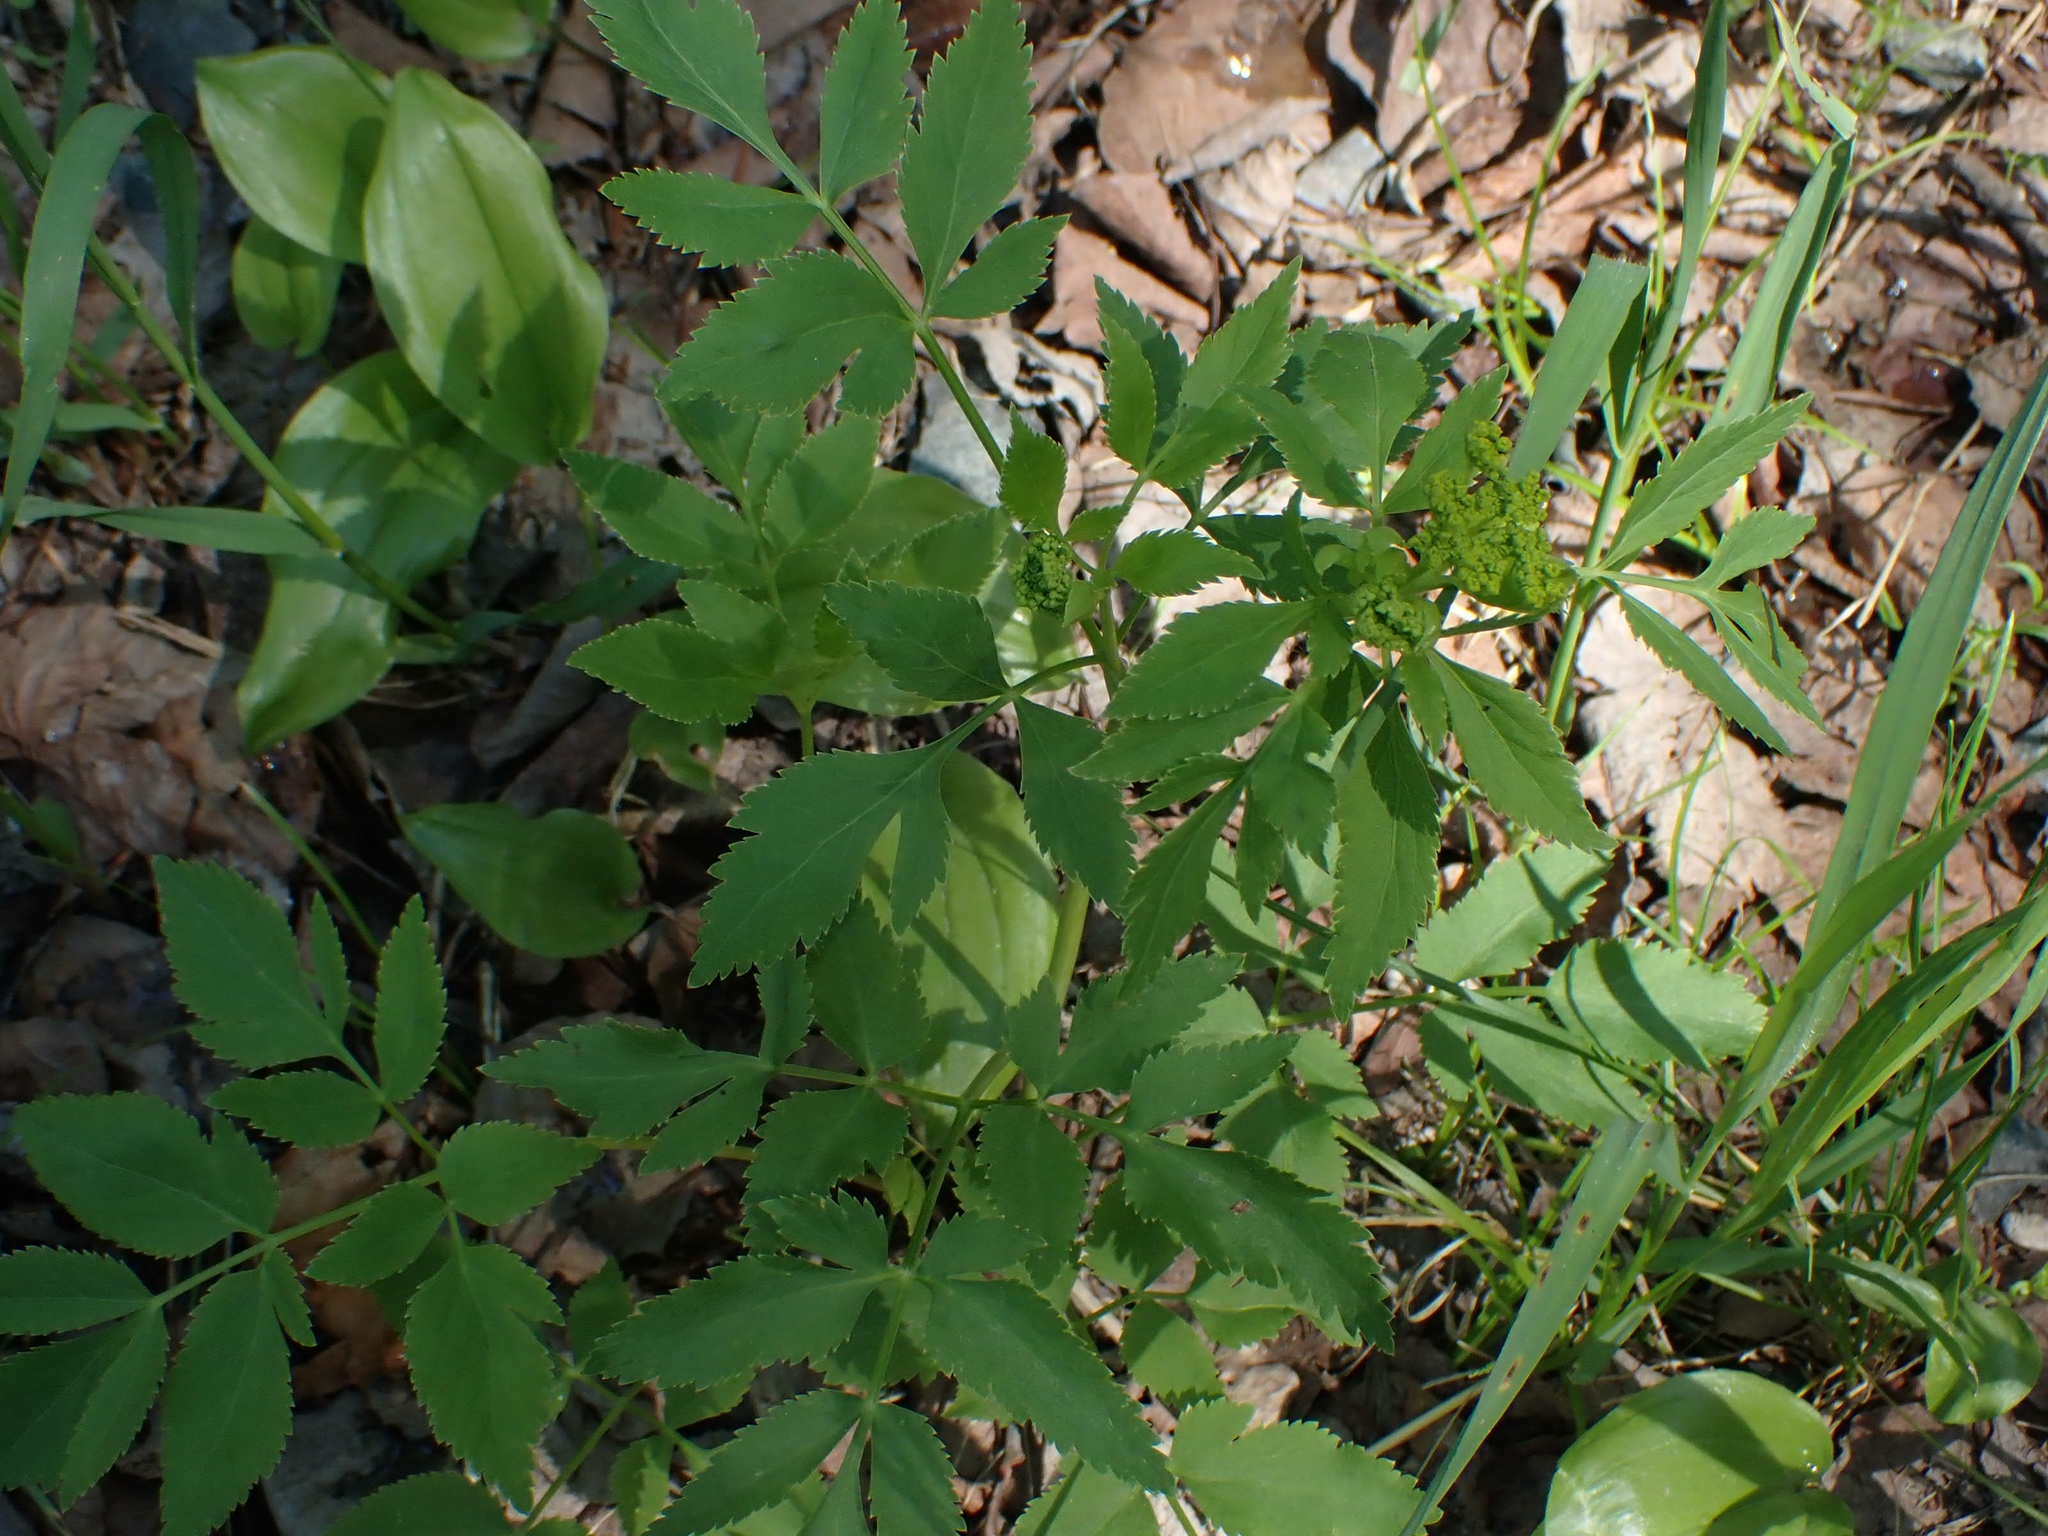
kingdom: Plantae
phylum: Tracheophyta
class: Magnoliopsida
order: Apiales
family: Apiaceae
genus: Zizia
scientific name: Zizia aurea
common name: Golden alexanders
